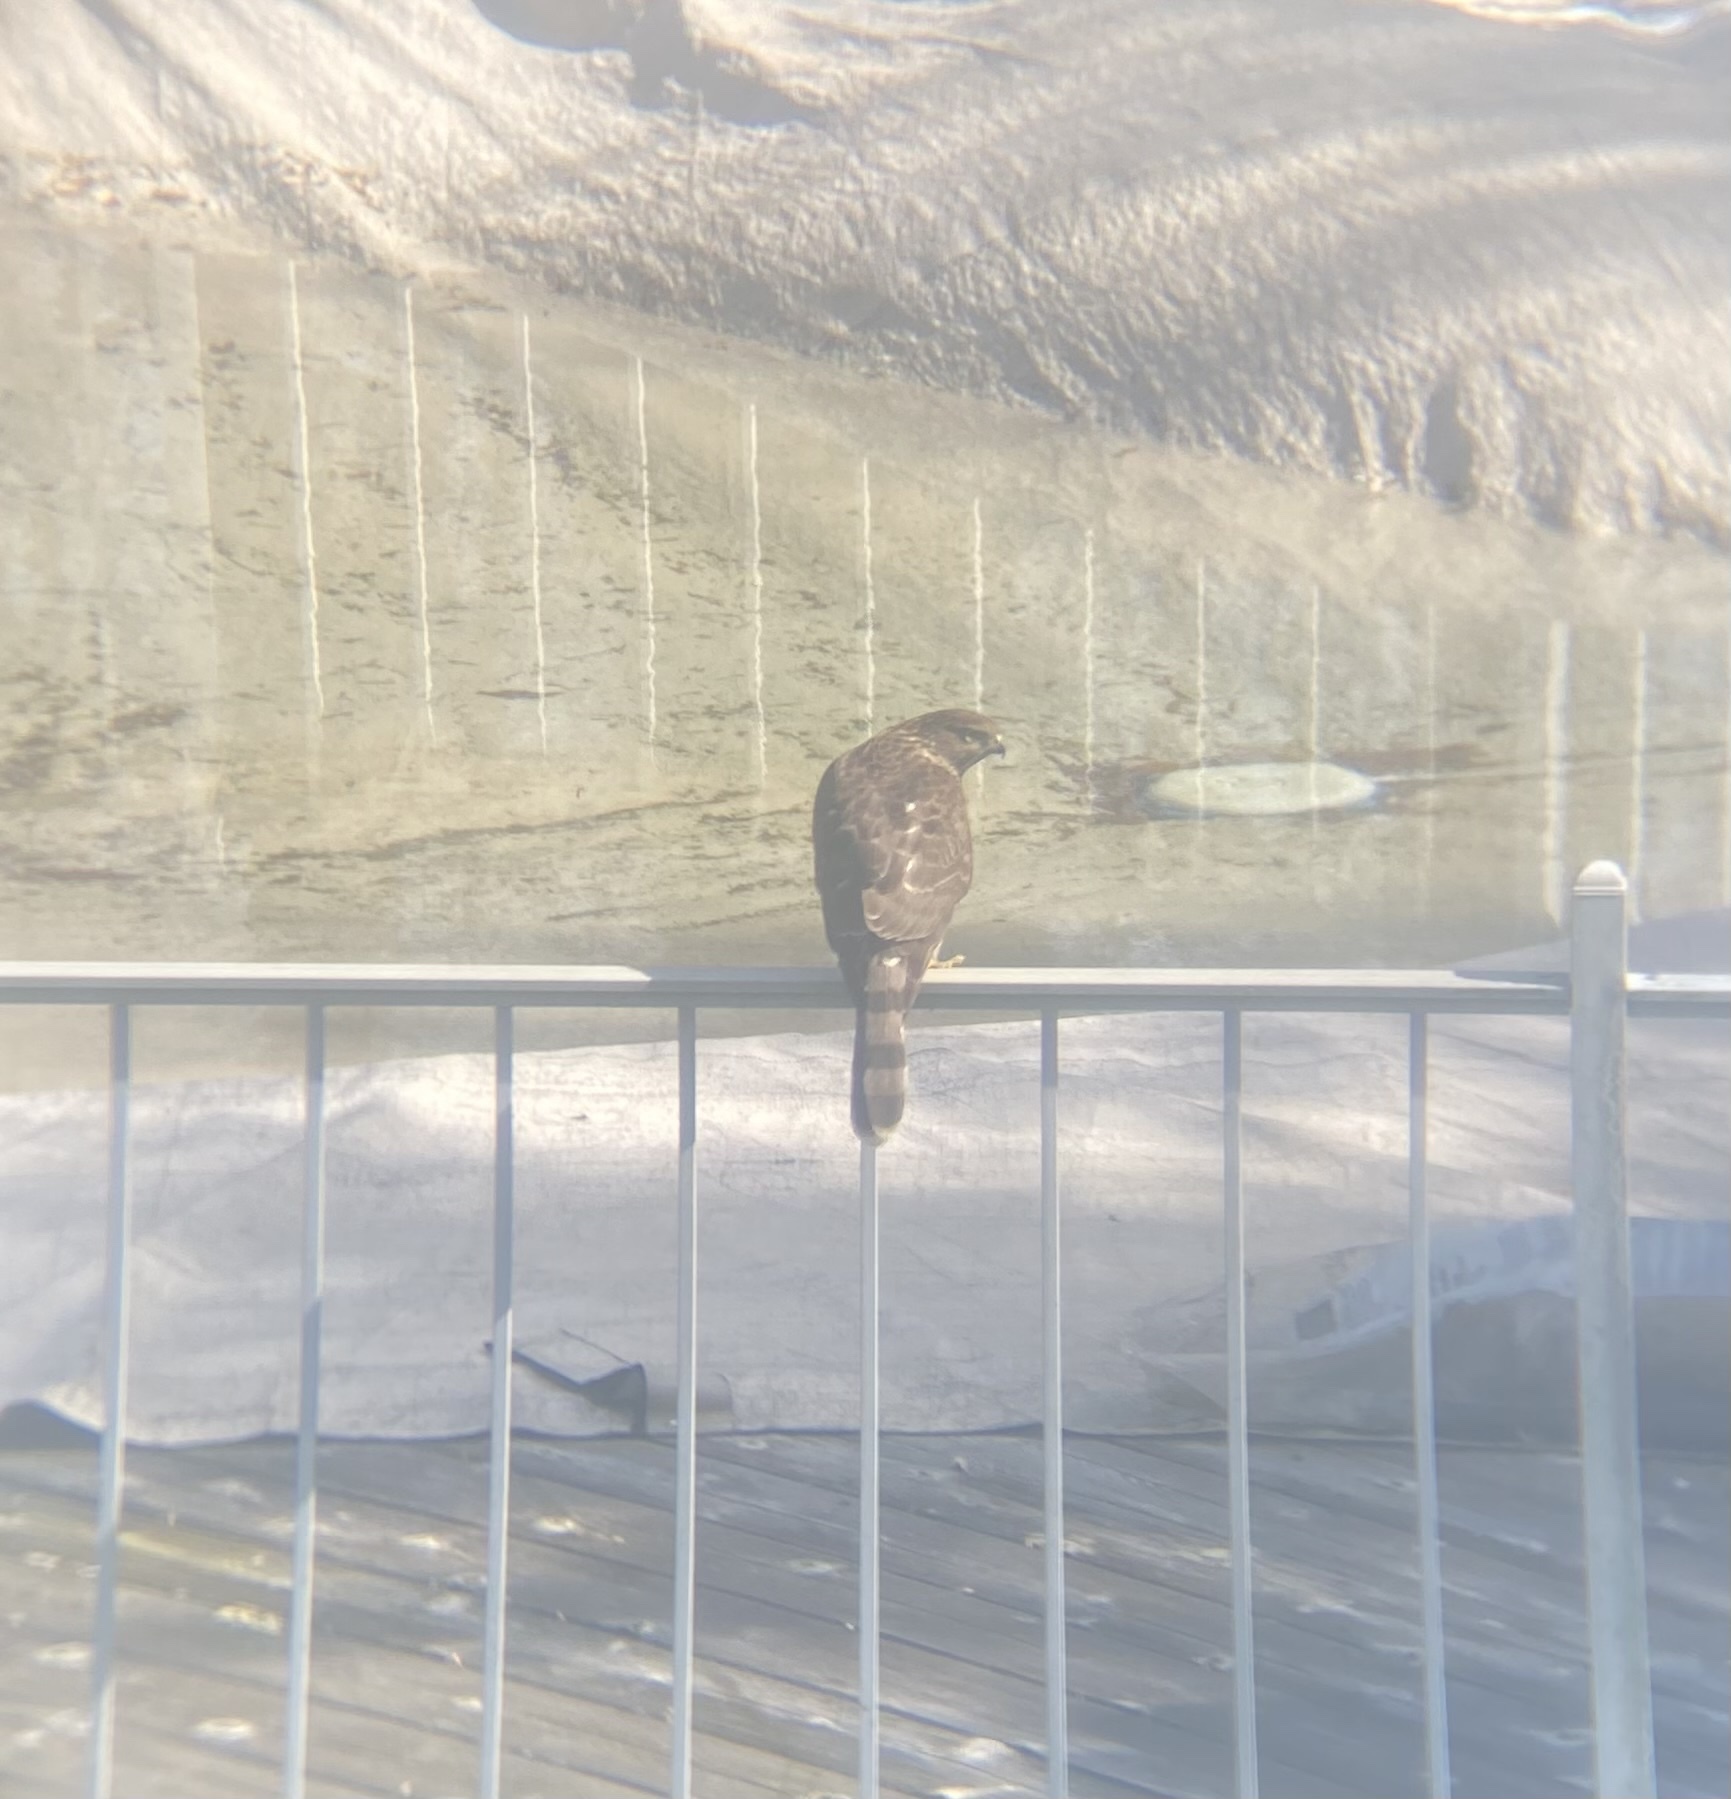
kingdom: Animalia
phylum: Chordata
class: Aves
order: Accipitriformes
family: Accipitridae
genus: Accipiter
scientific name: Accipiter cooperii
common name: Cooper's hawk
